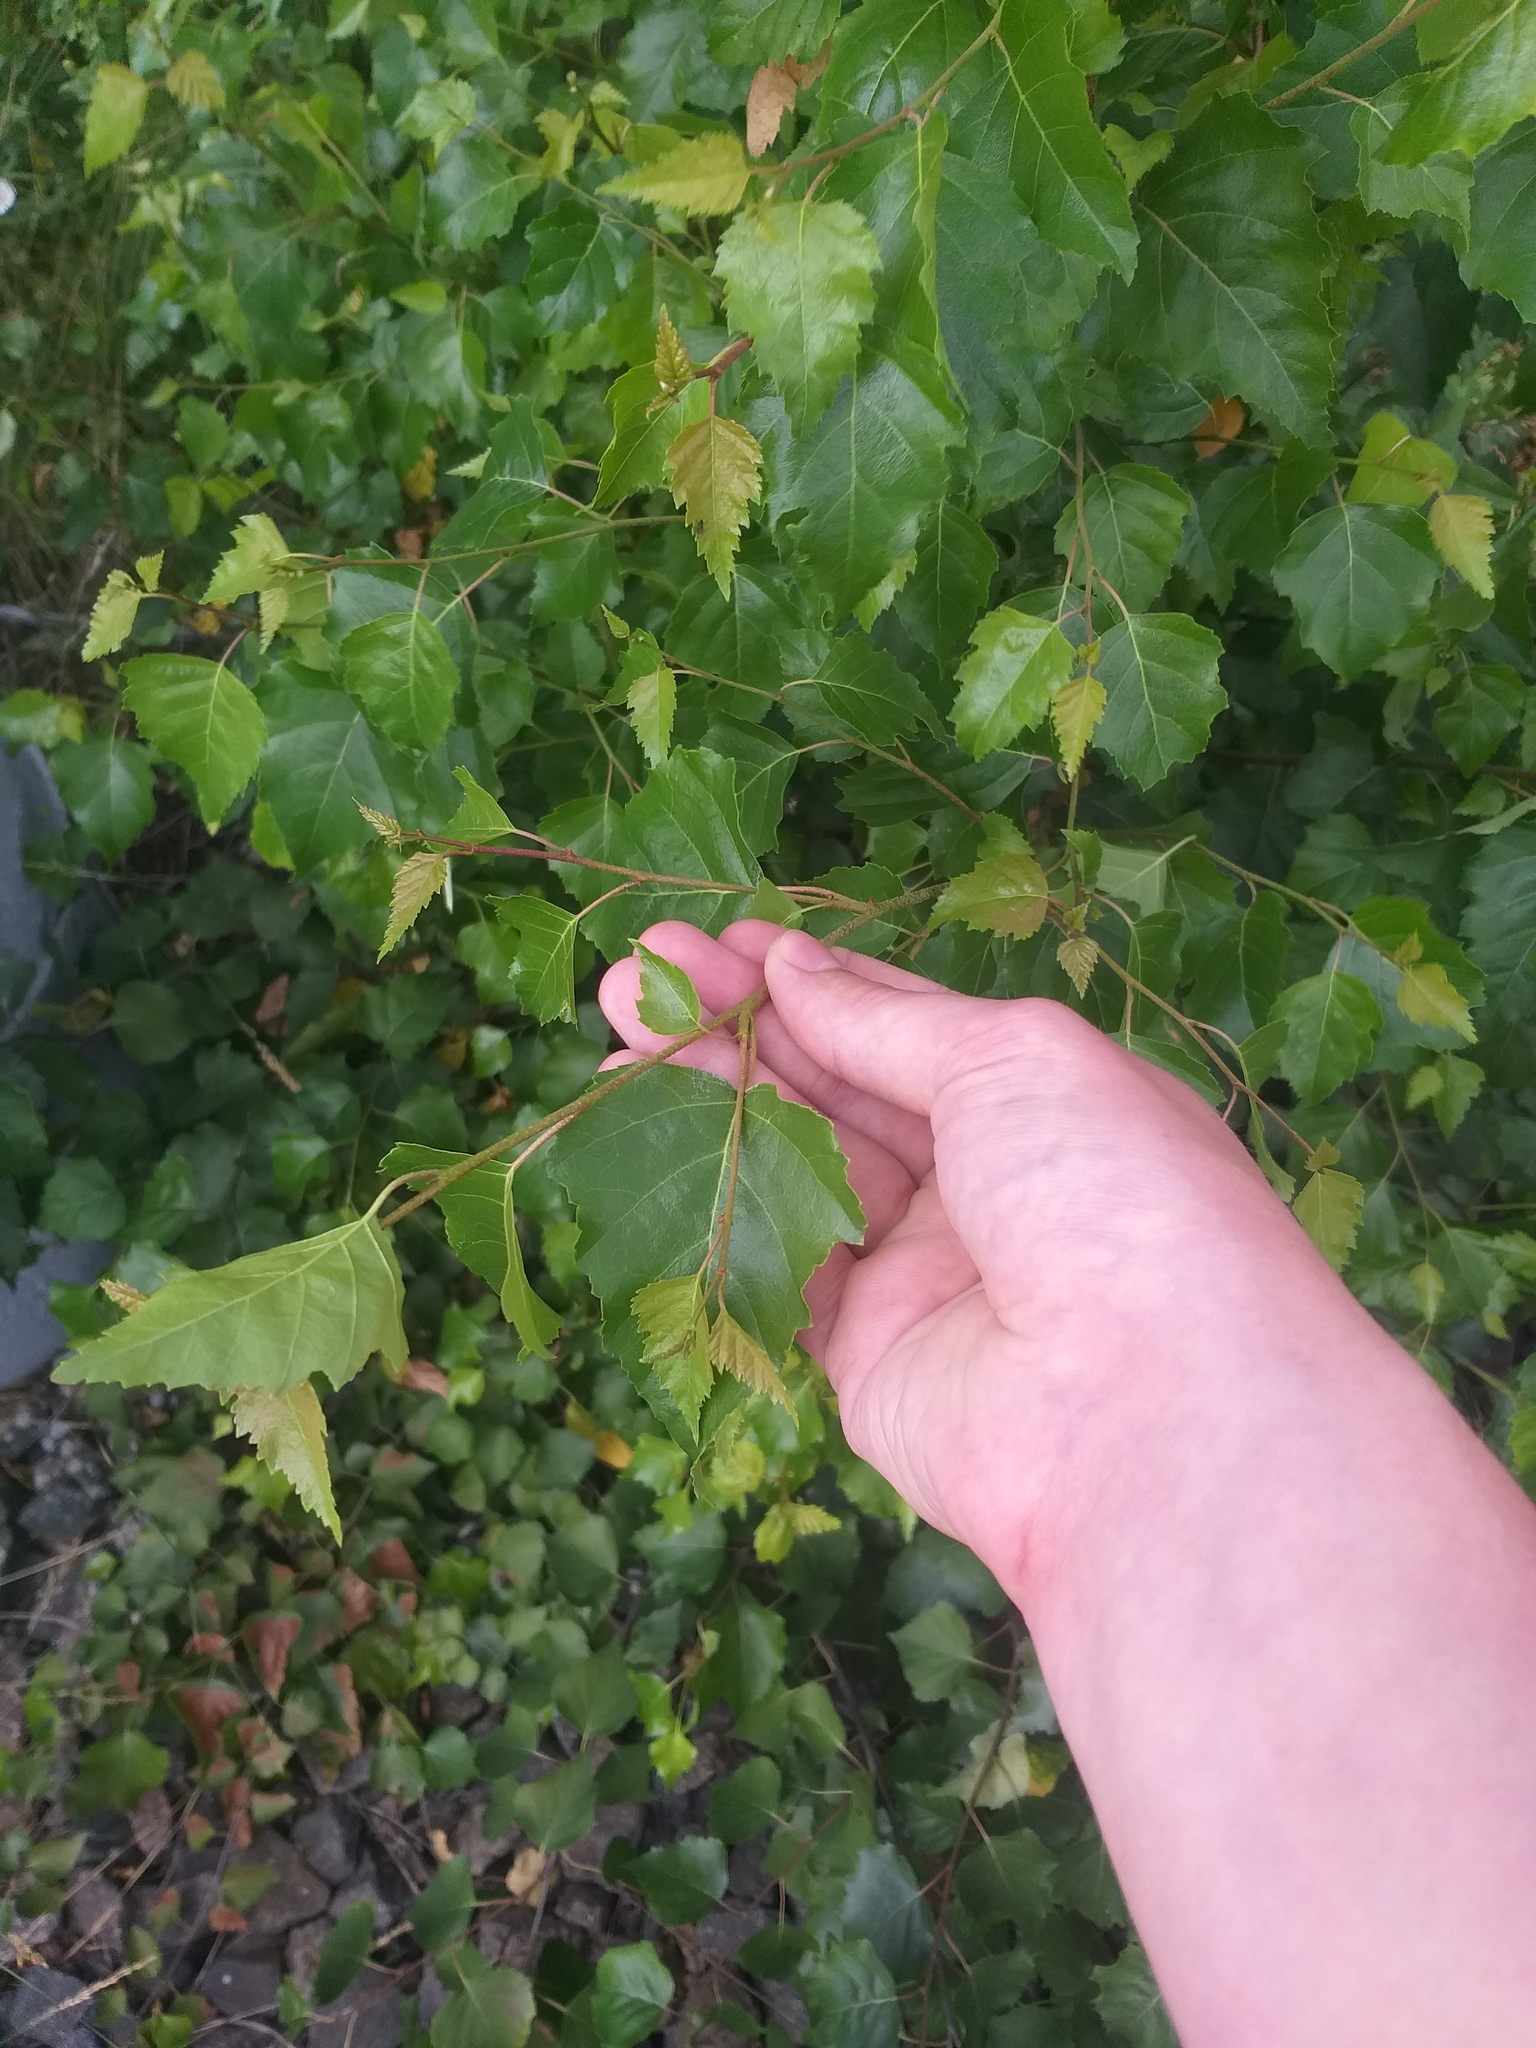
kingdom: Plantae
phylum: Tracheophyta
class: Magnoliopsida
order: Fagales
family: Betulaceae
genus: Betula
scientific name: Betula pendula
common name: Silver birch
